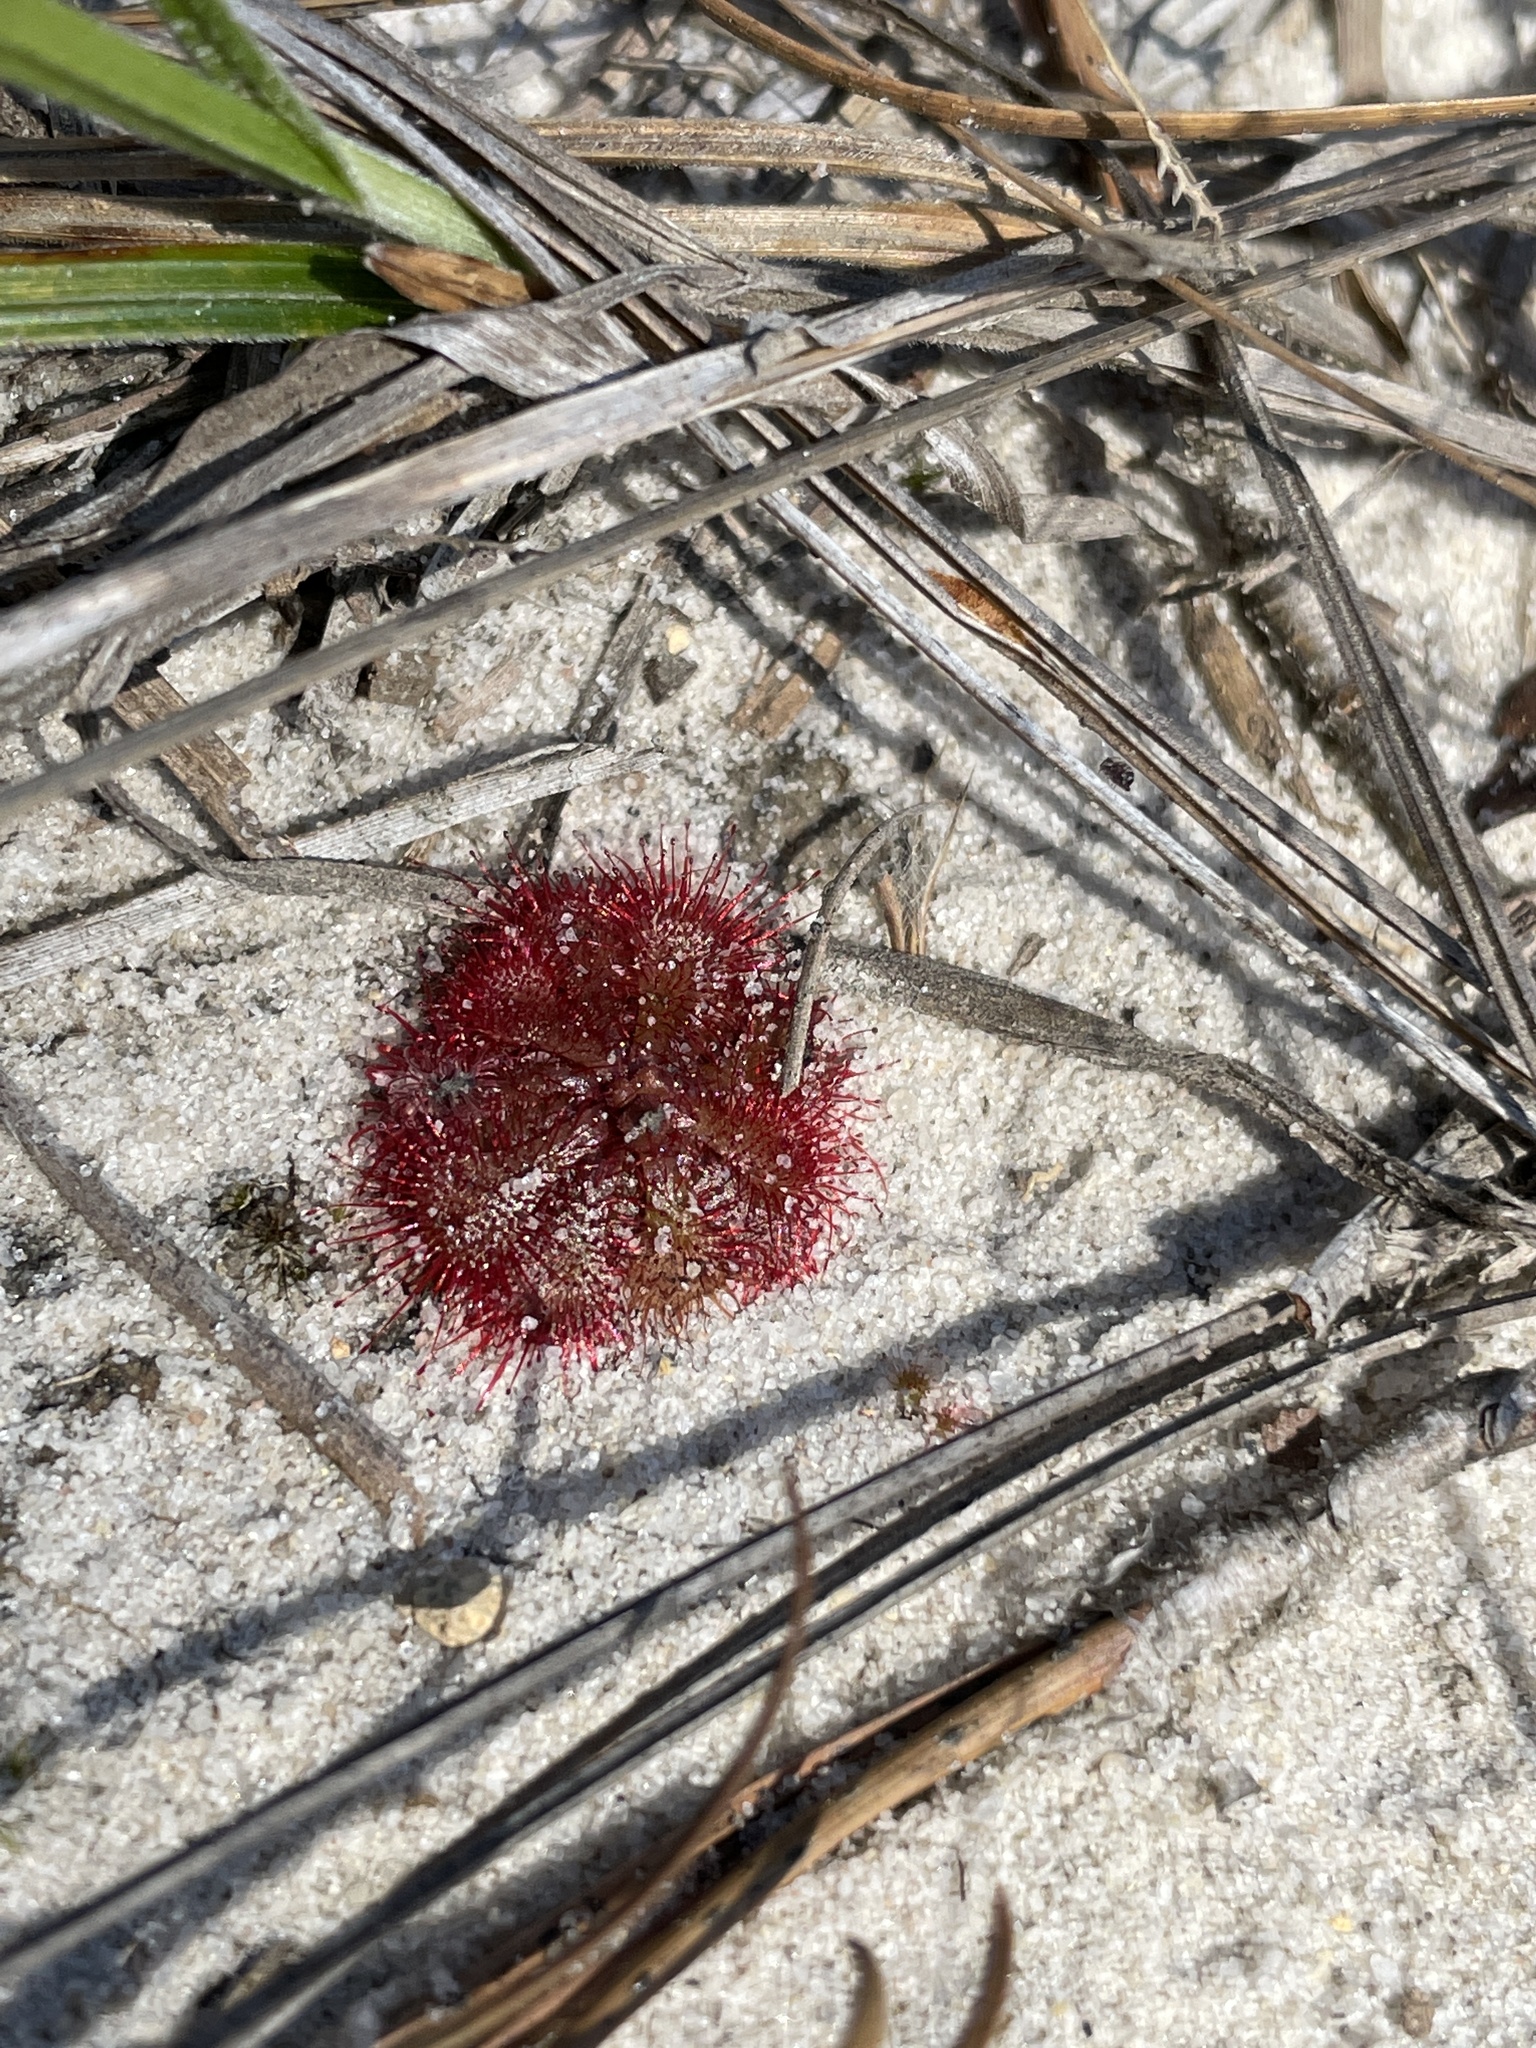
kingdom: Plantae
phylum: Tracheophyta
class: Magnoliopsida
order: Caryophyllales
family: Droseraceae
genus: Drosera
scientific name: Drosera brevifolia
